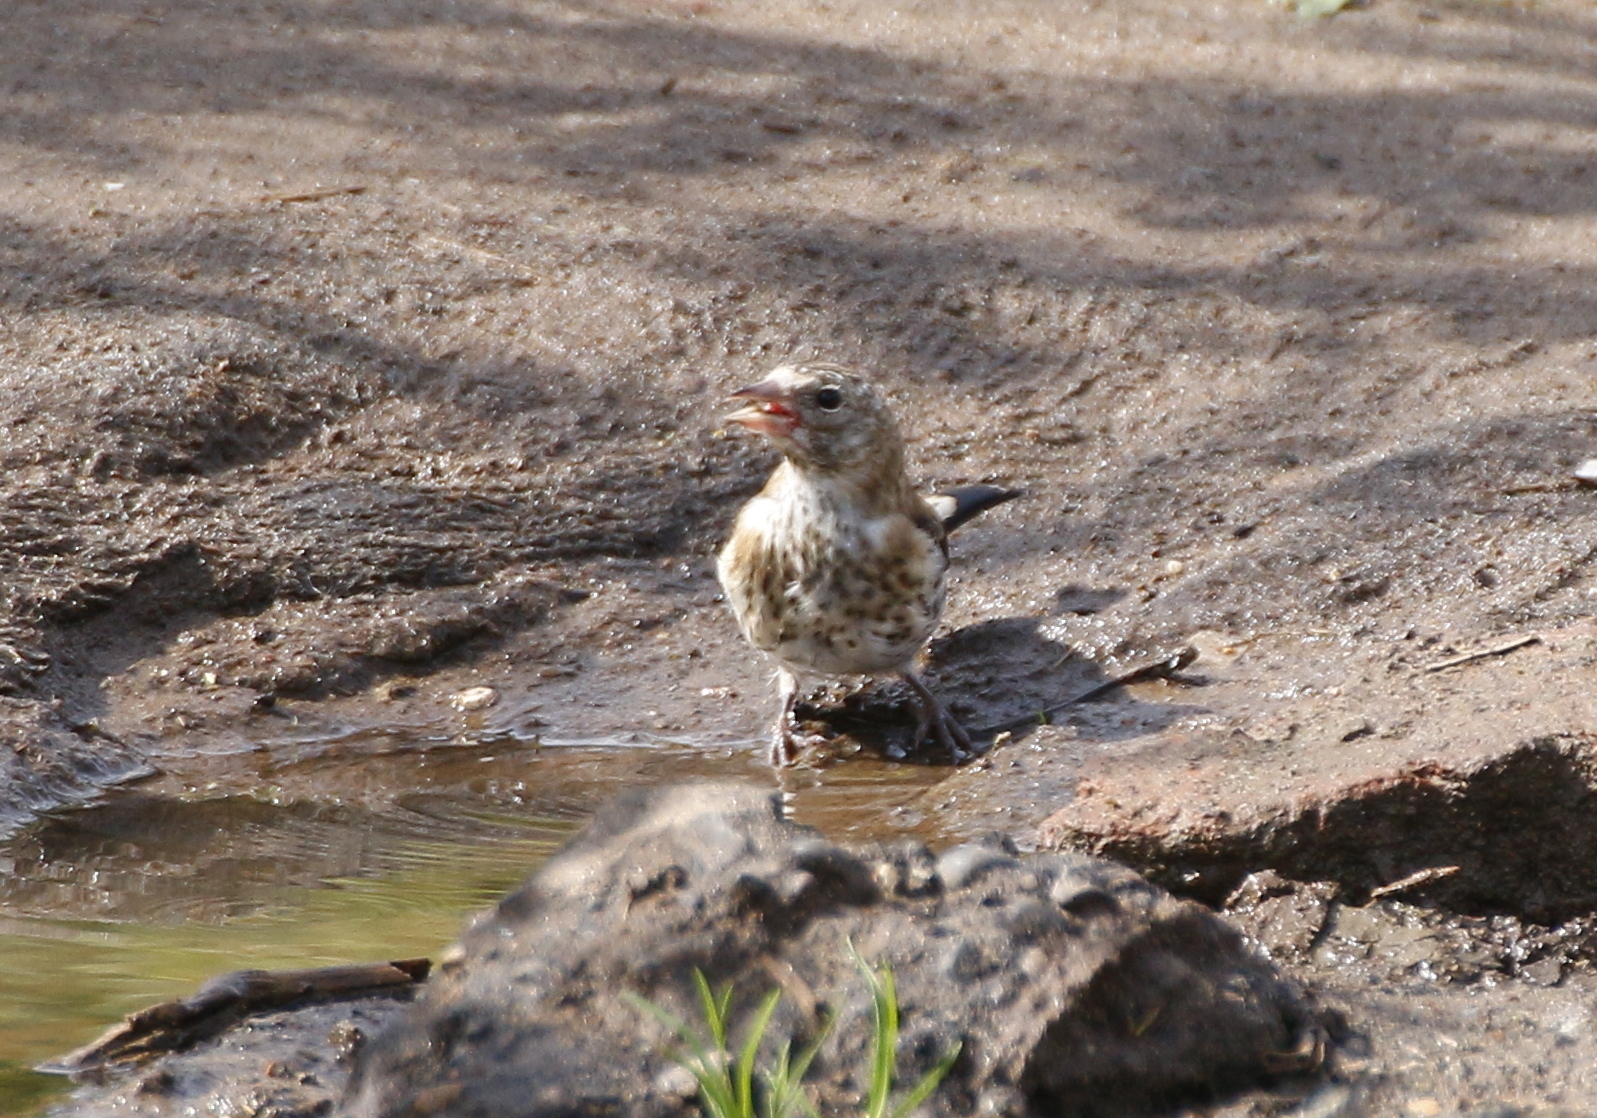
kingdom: Animalia
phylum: Chordata
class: Aves
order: Passeriformes
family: Fringillidae
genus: Carduelis
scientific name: Carduelis carduelis
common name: European goldfinch
